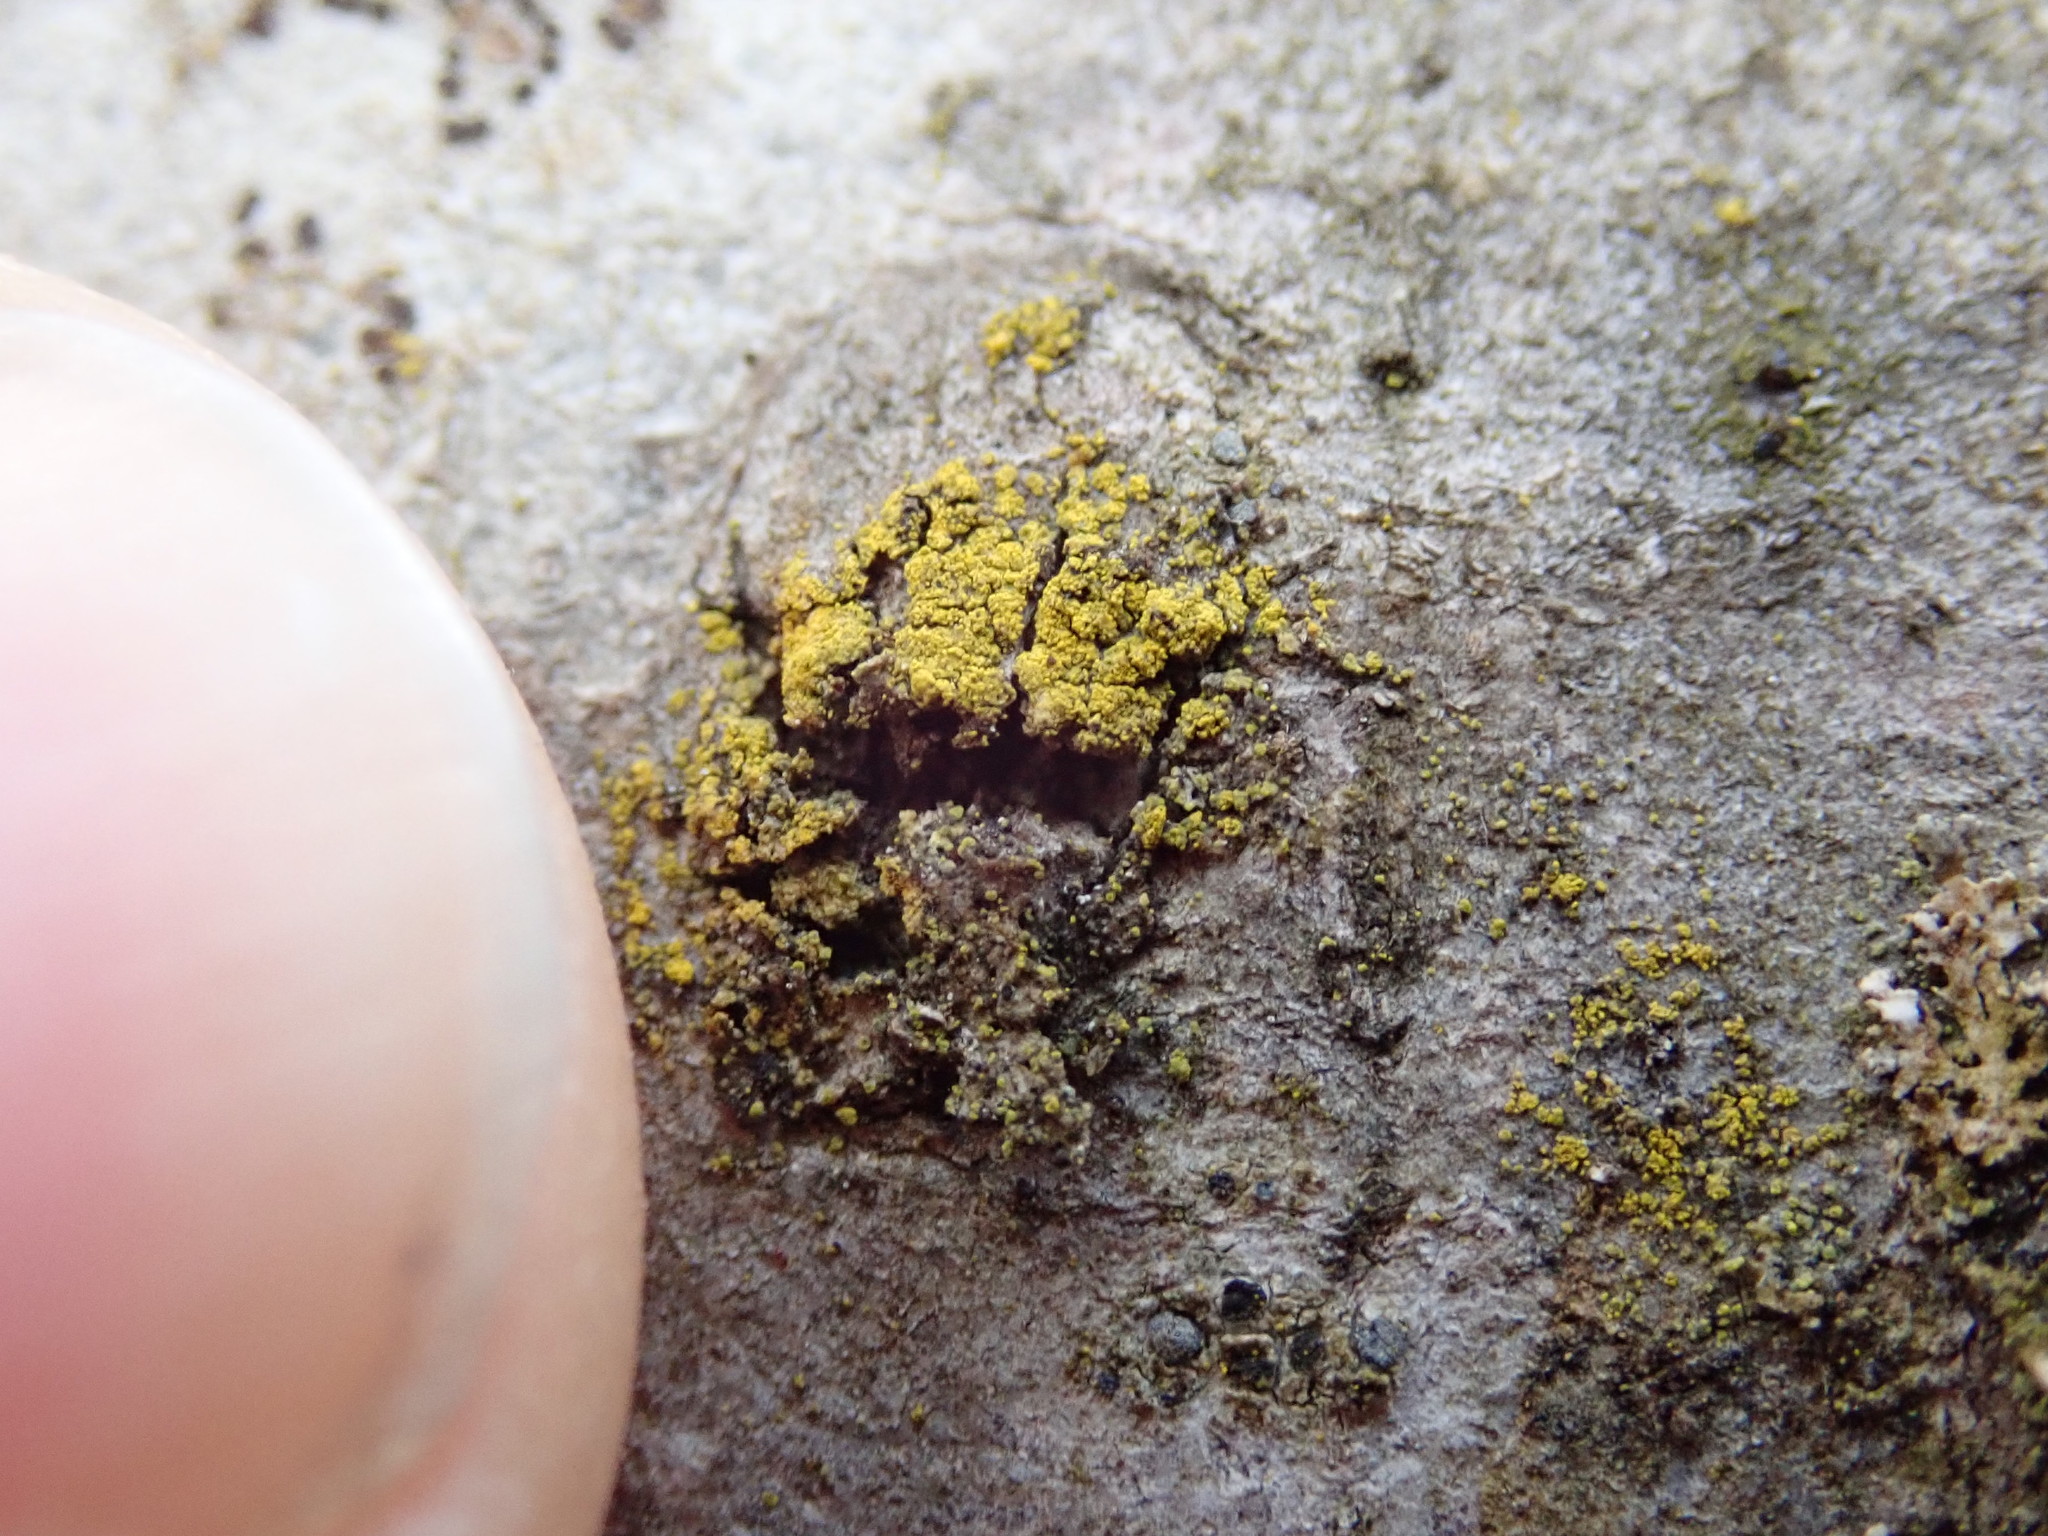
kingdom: Fungi
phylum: Ascomycota
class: Candelariomycetes
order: Candelariales
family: Candelariaceae
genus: Candelariella
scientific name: Candelariella vitellina
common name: Common goldspeck
